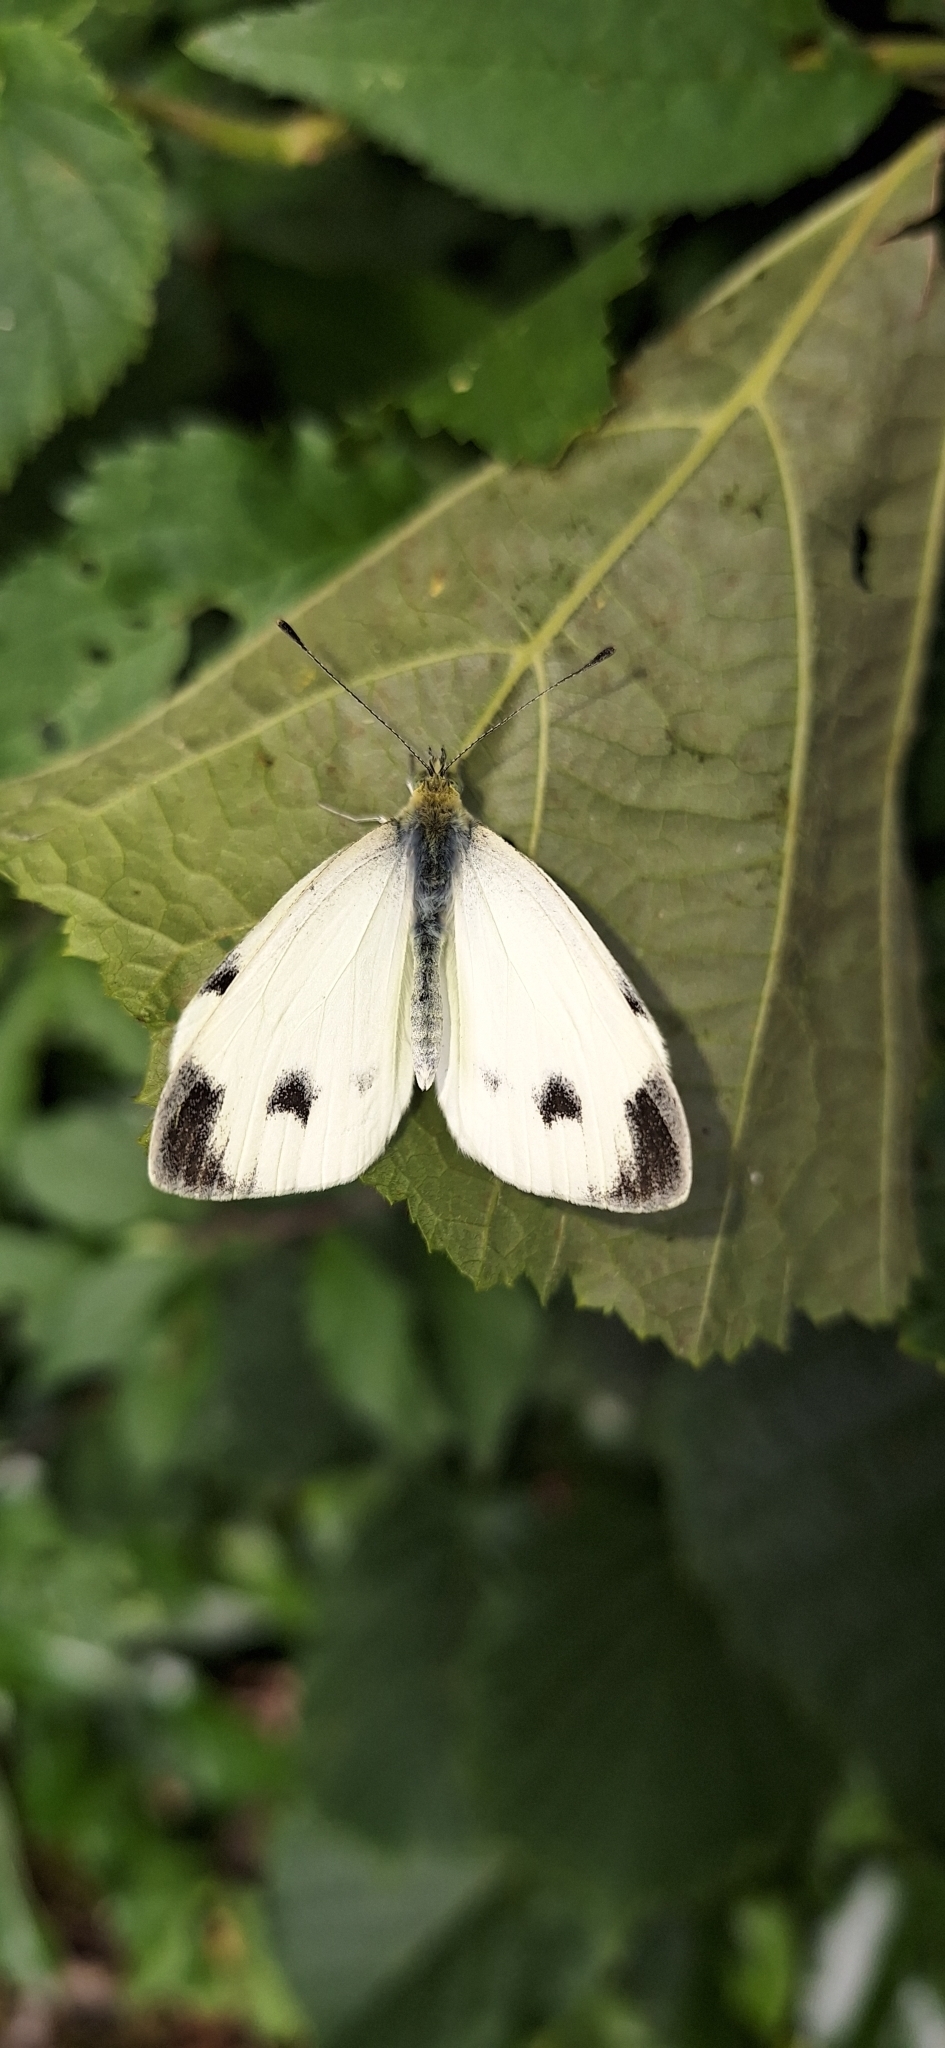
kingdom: Animalia
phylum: Arthropoda
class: Insecta
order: Lepidoptera
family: Pieridae
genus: Pieris
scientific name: Pieris mannii
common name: Southern small white
